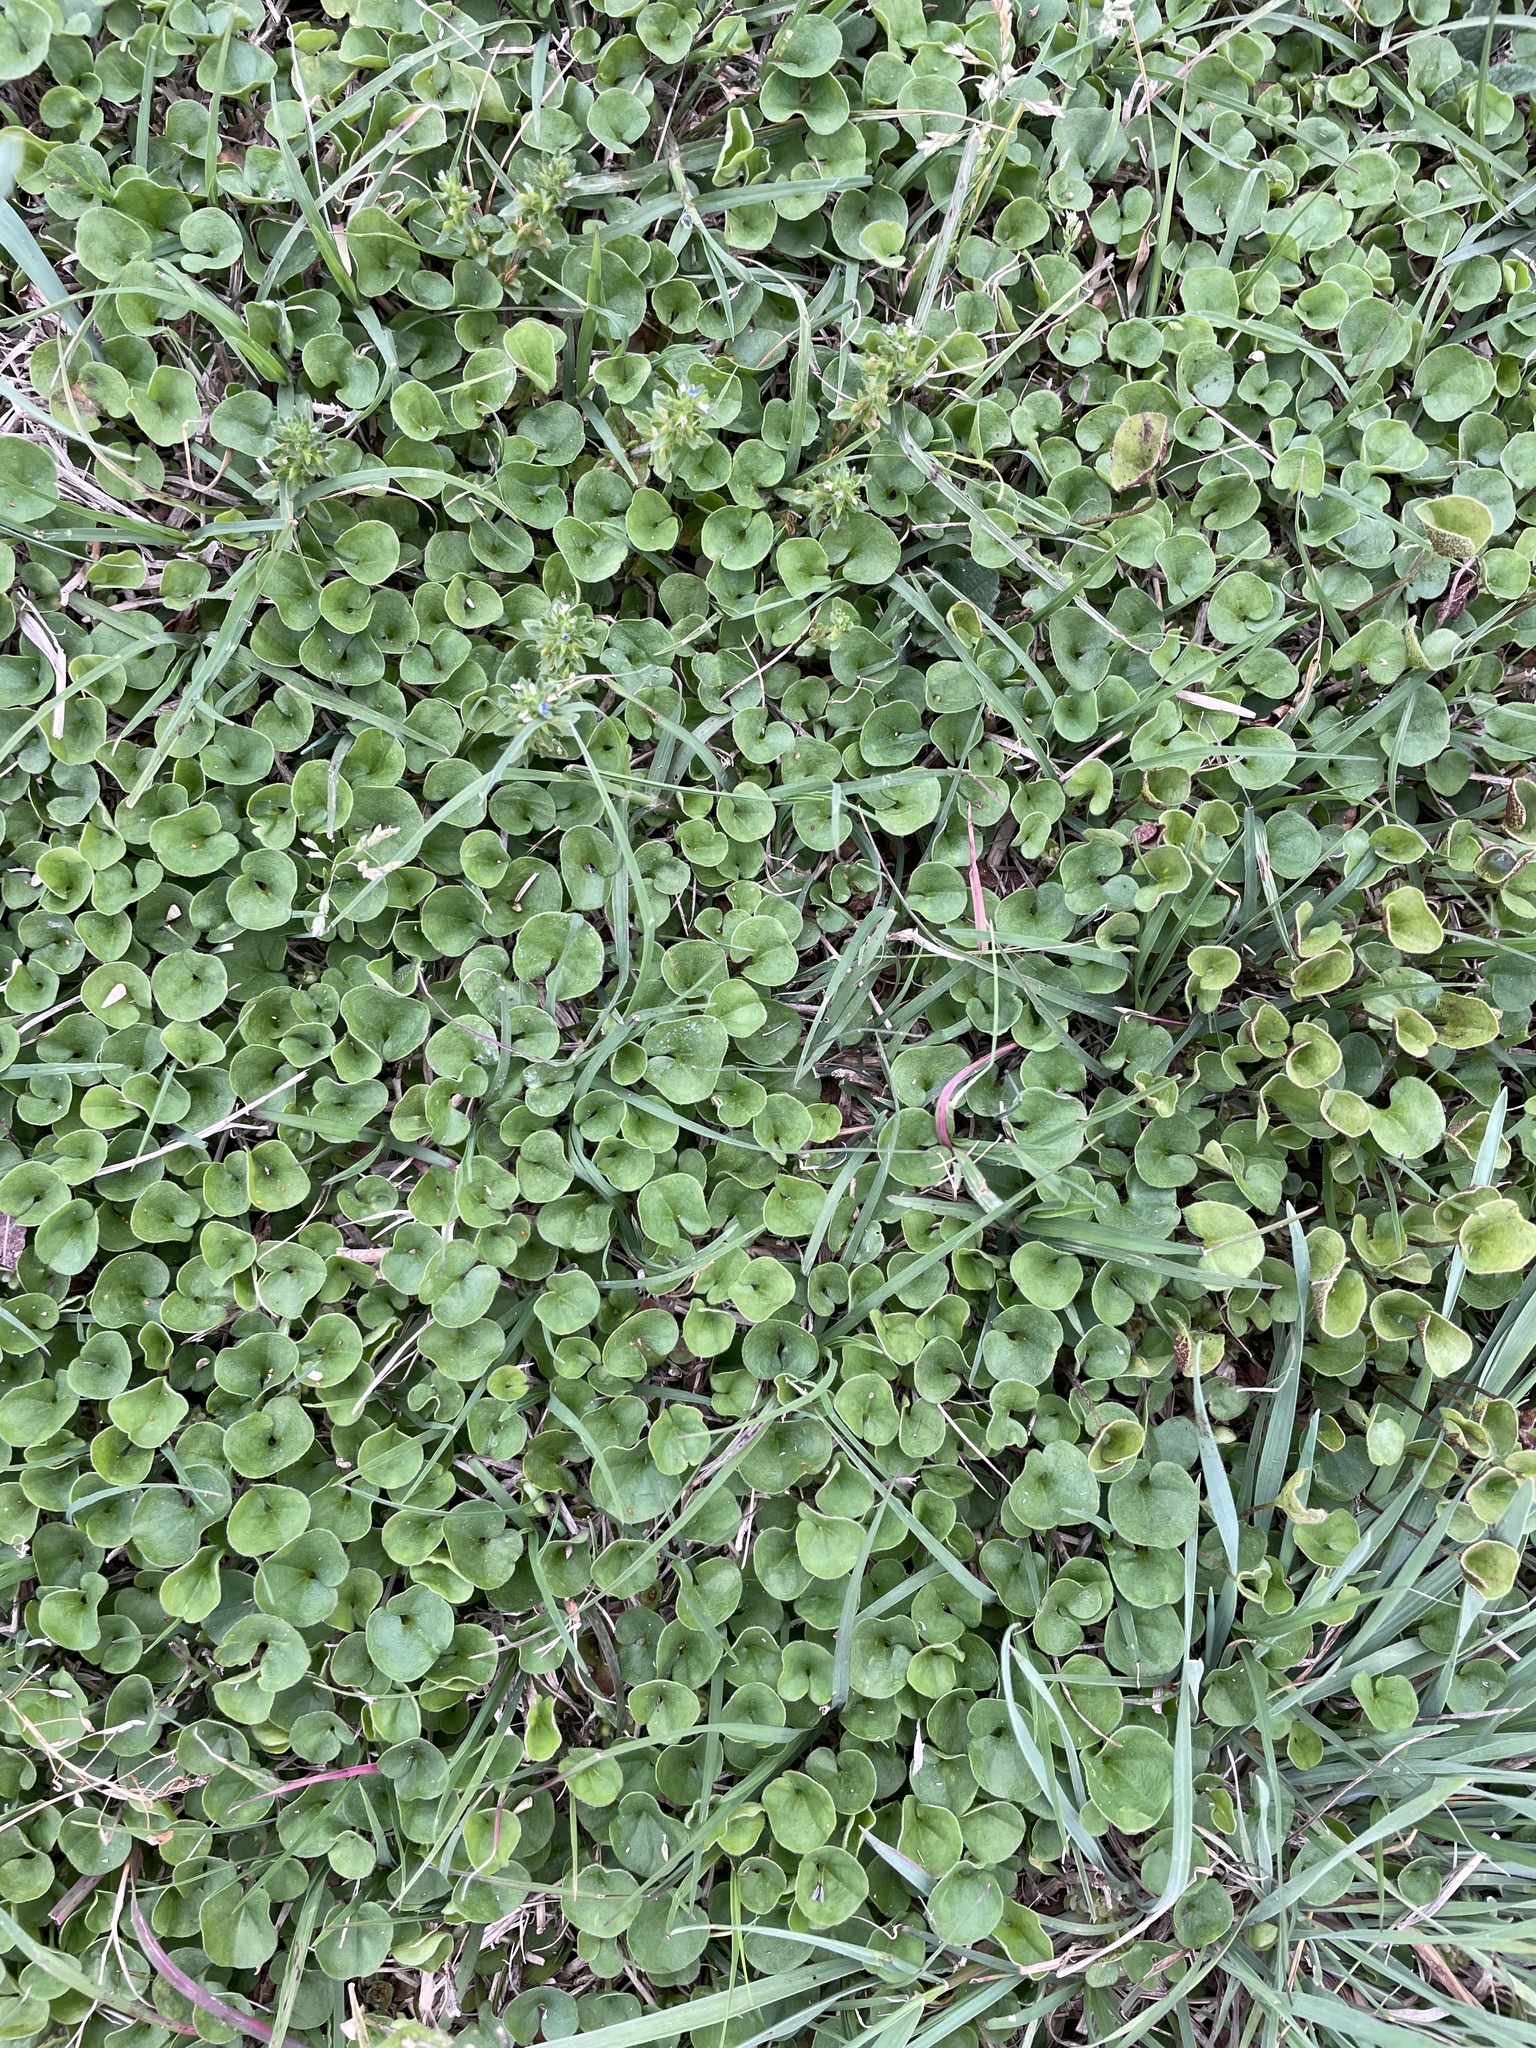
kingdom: Plantae
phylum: Tracheophyta
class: Magnoliopsida
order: Solanales
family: Convolvulaceae
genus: Dichondra
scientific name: Dichondra carolinensis
